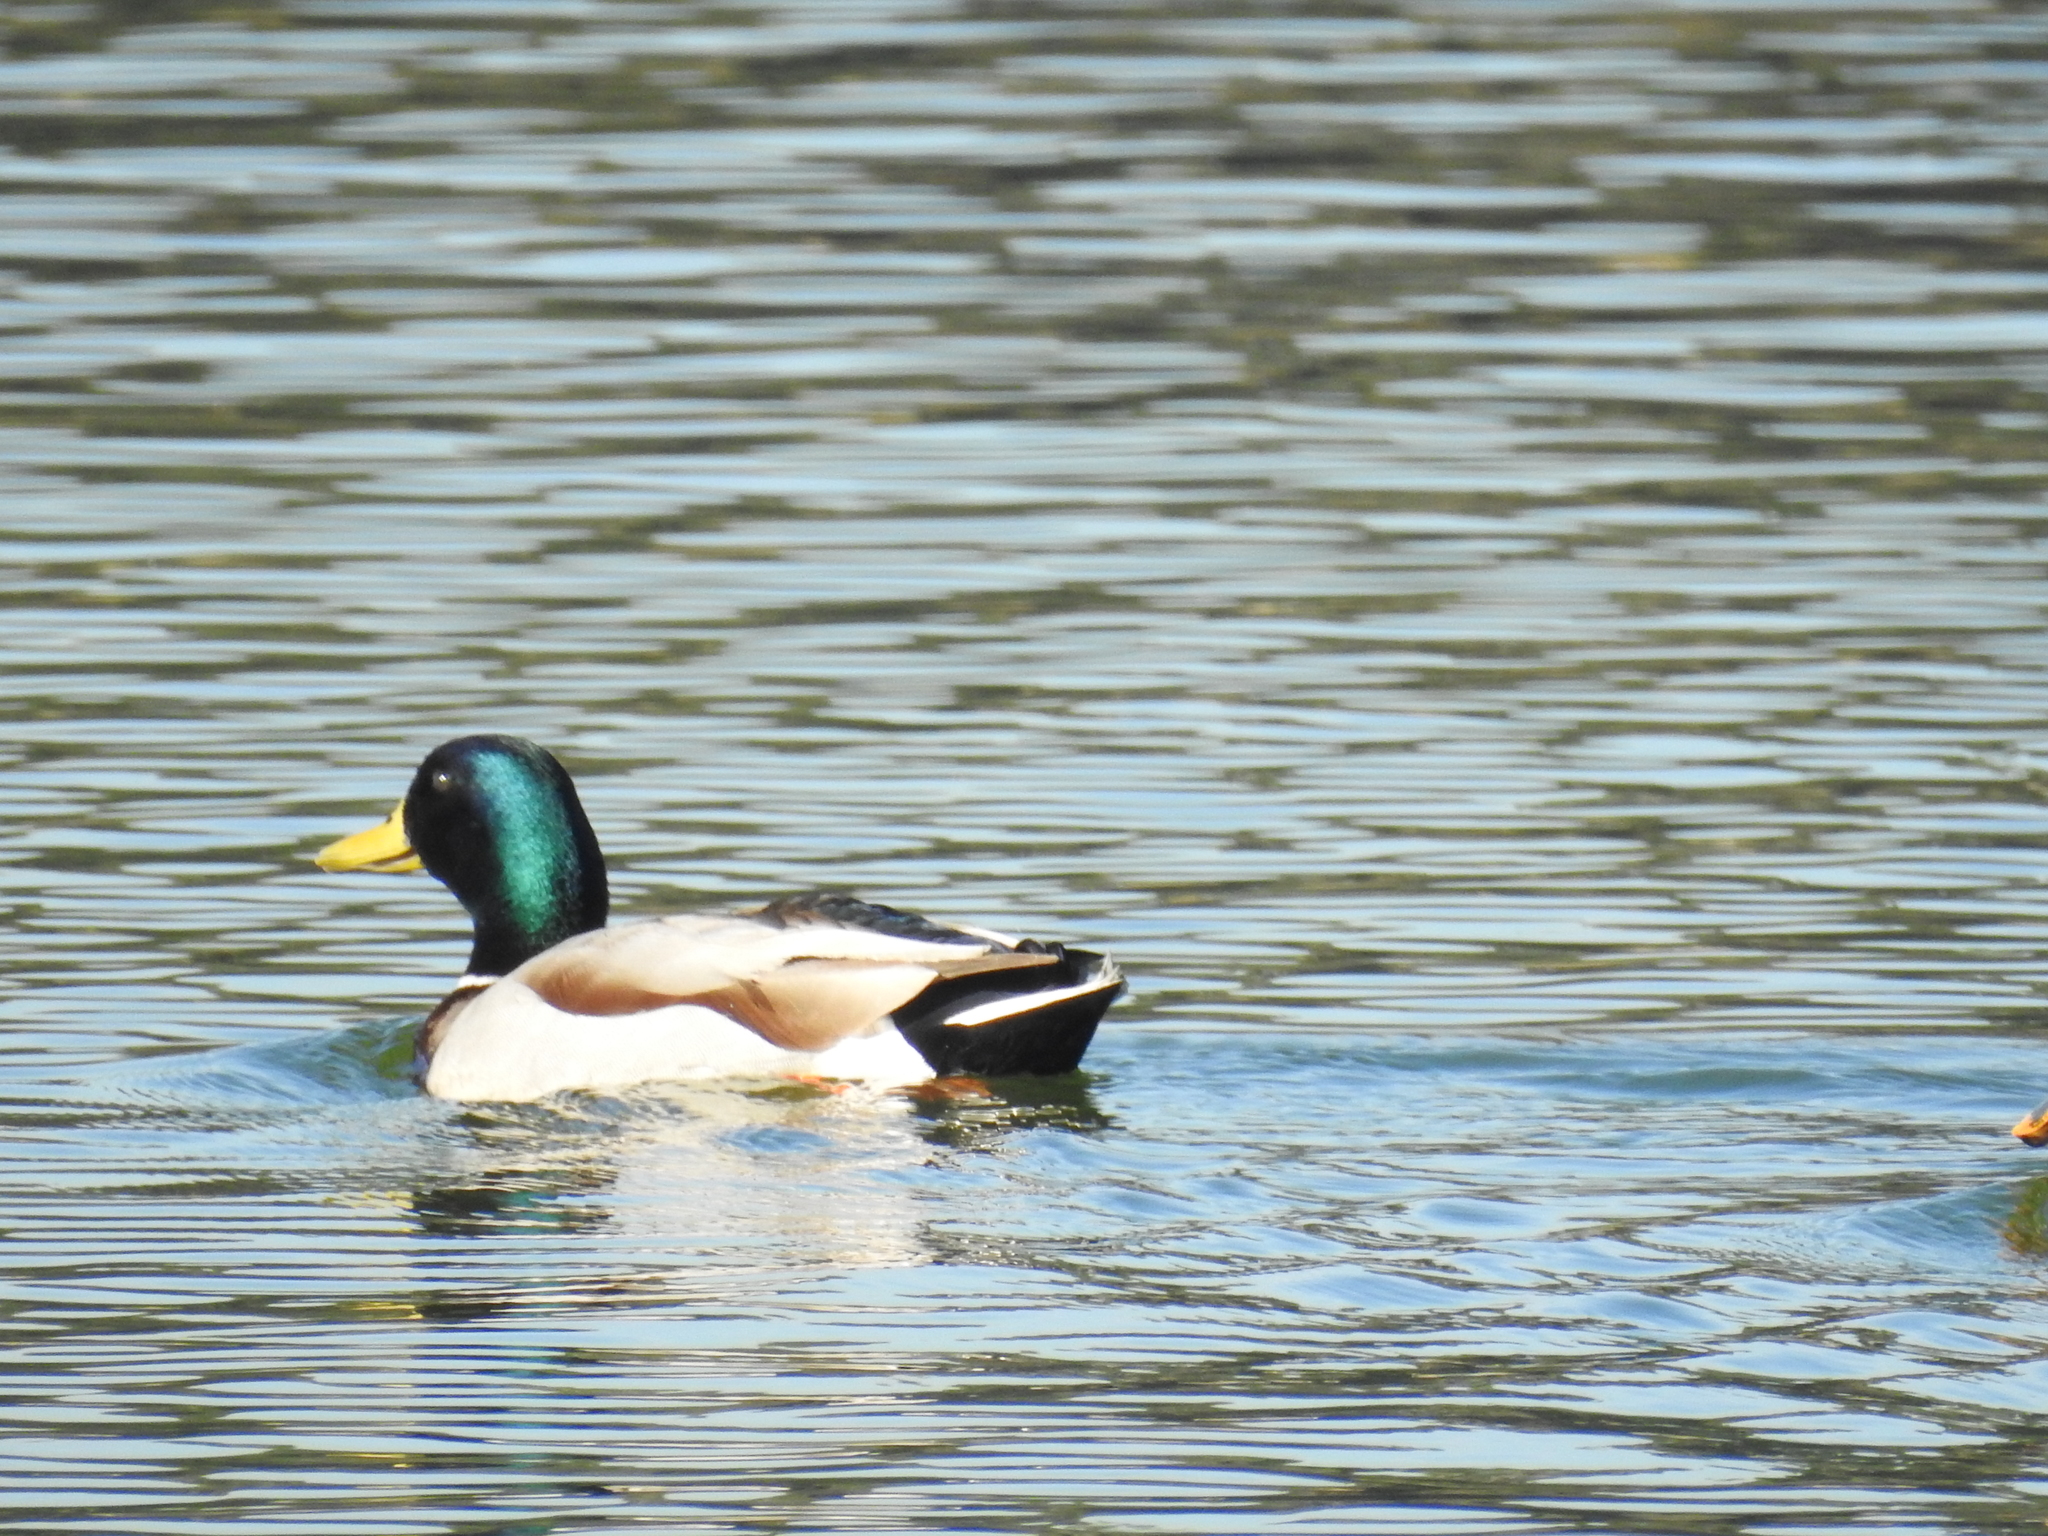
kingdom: Animalia
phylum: Chordata
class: Aves
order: Anseriformes
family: Anatidae
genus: Anas
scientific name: Anas platyrhynchos
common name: Mallard
